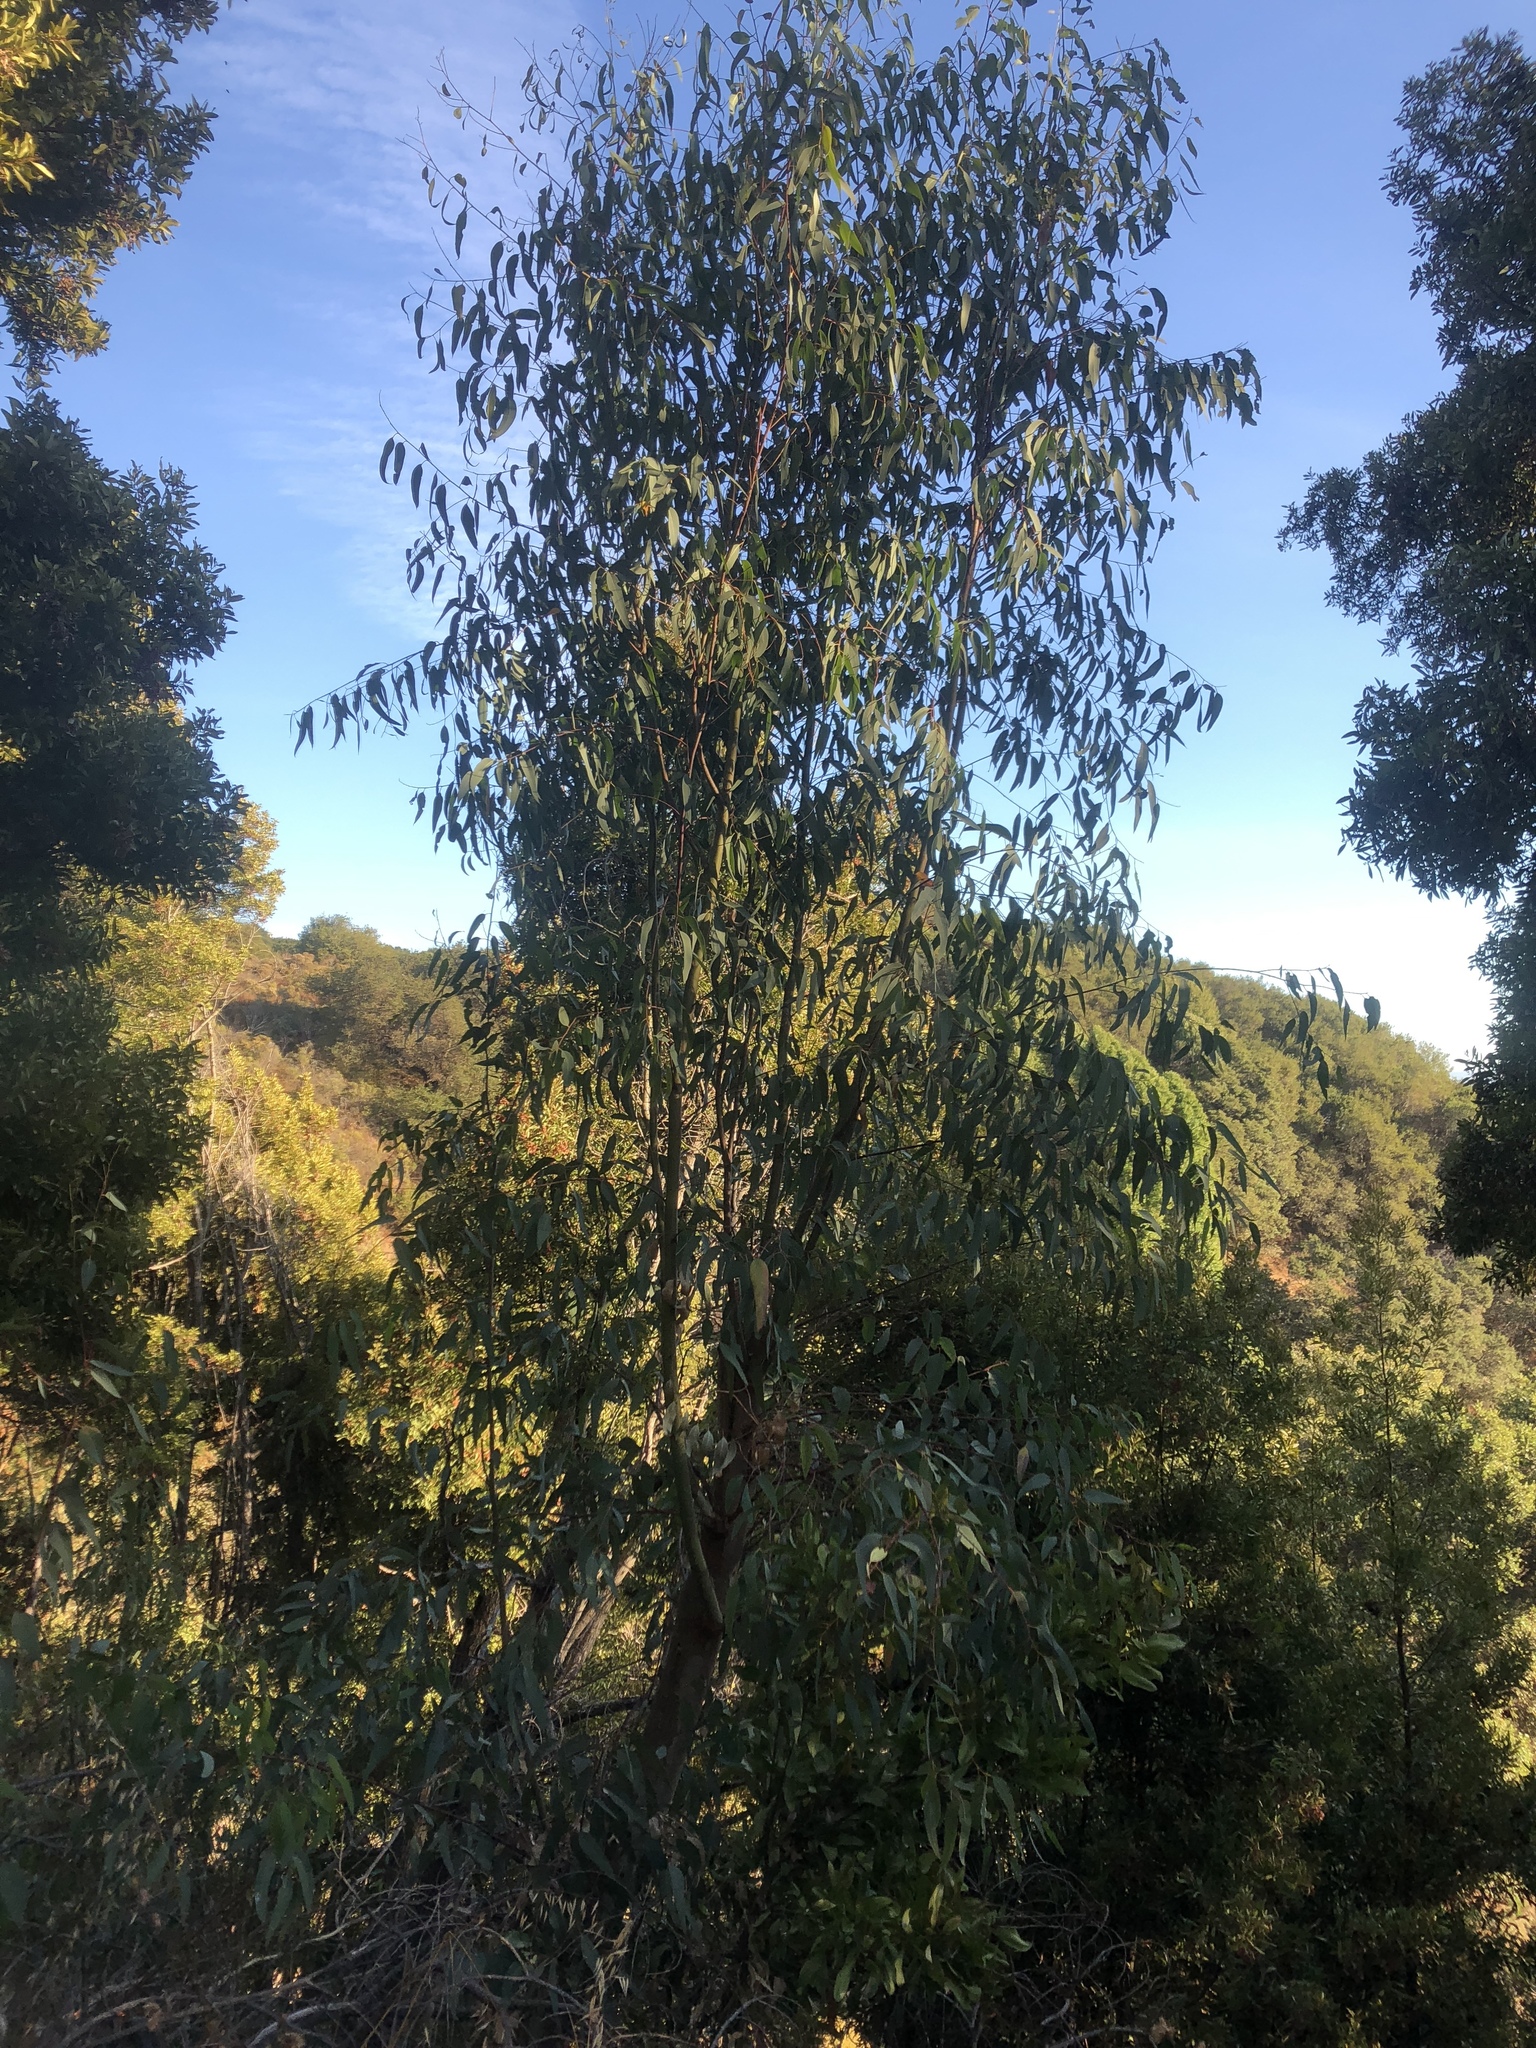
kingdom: Plantae
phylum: Tracheophyta
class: Magnoliopsida
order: Myrtales
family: Myrtaceae
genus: Eucalyptus
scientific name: Eucalyptus globulus
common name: Southern blue-gum
